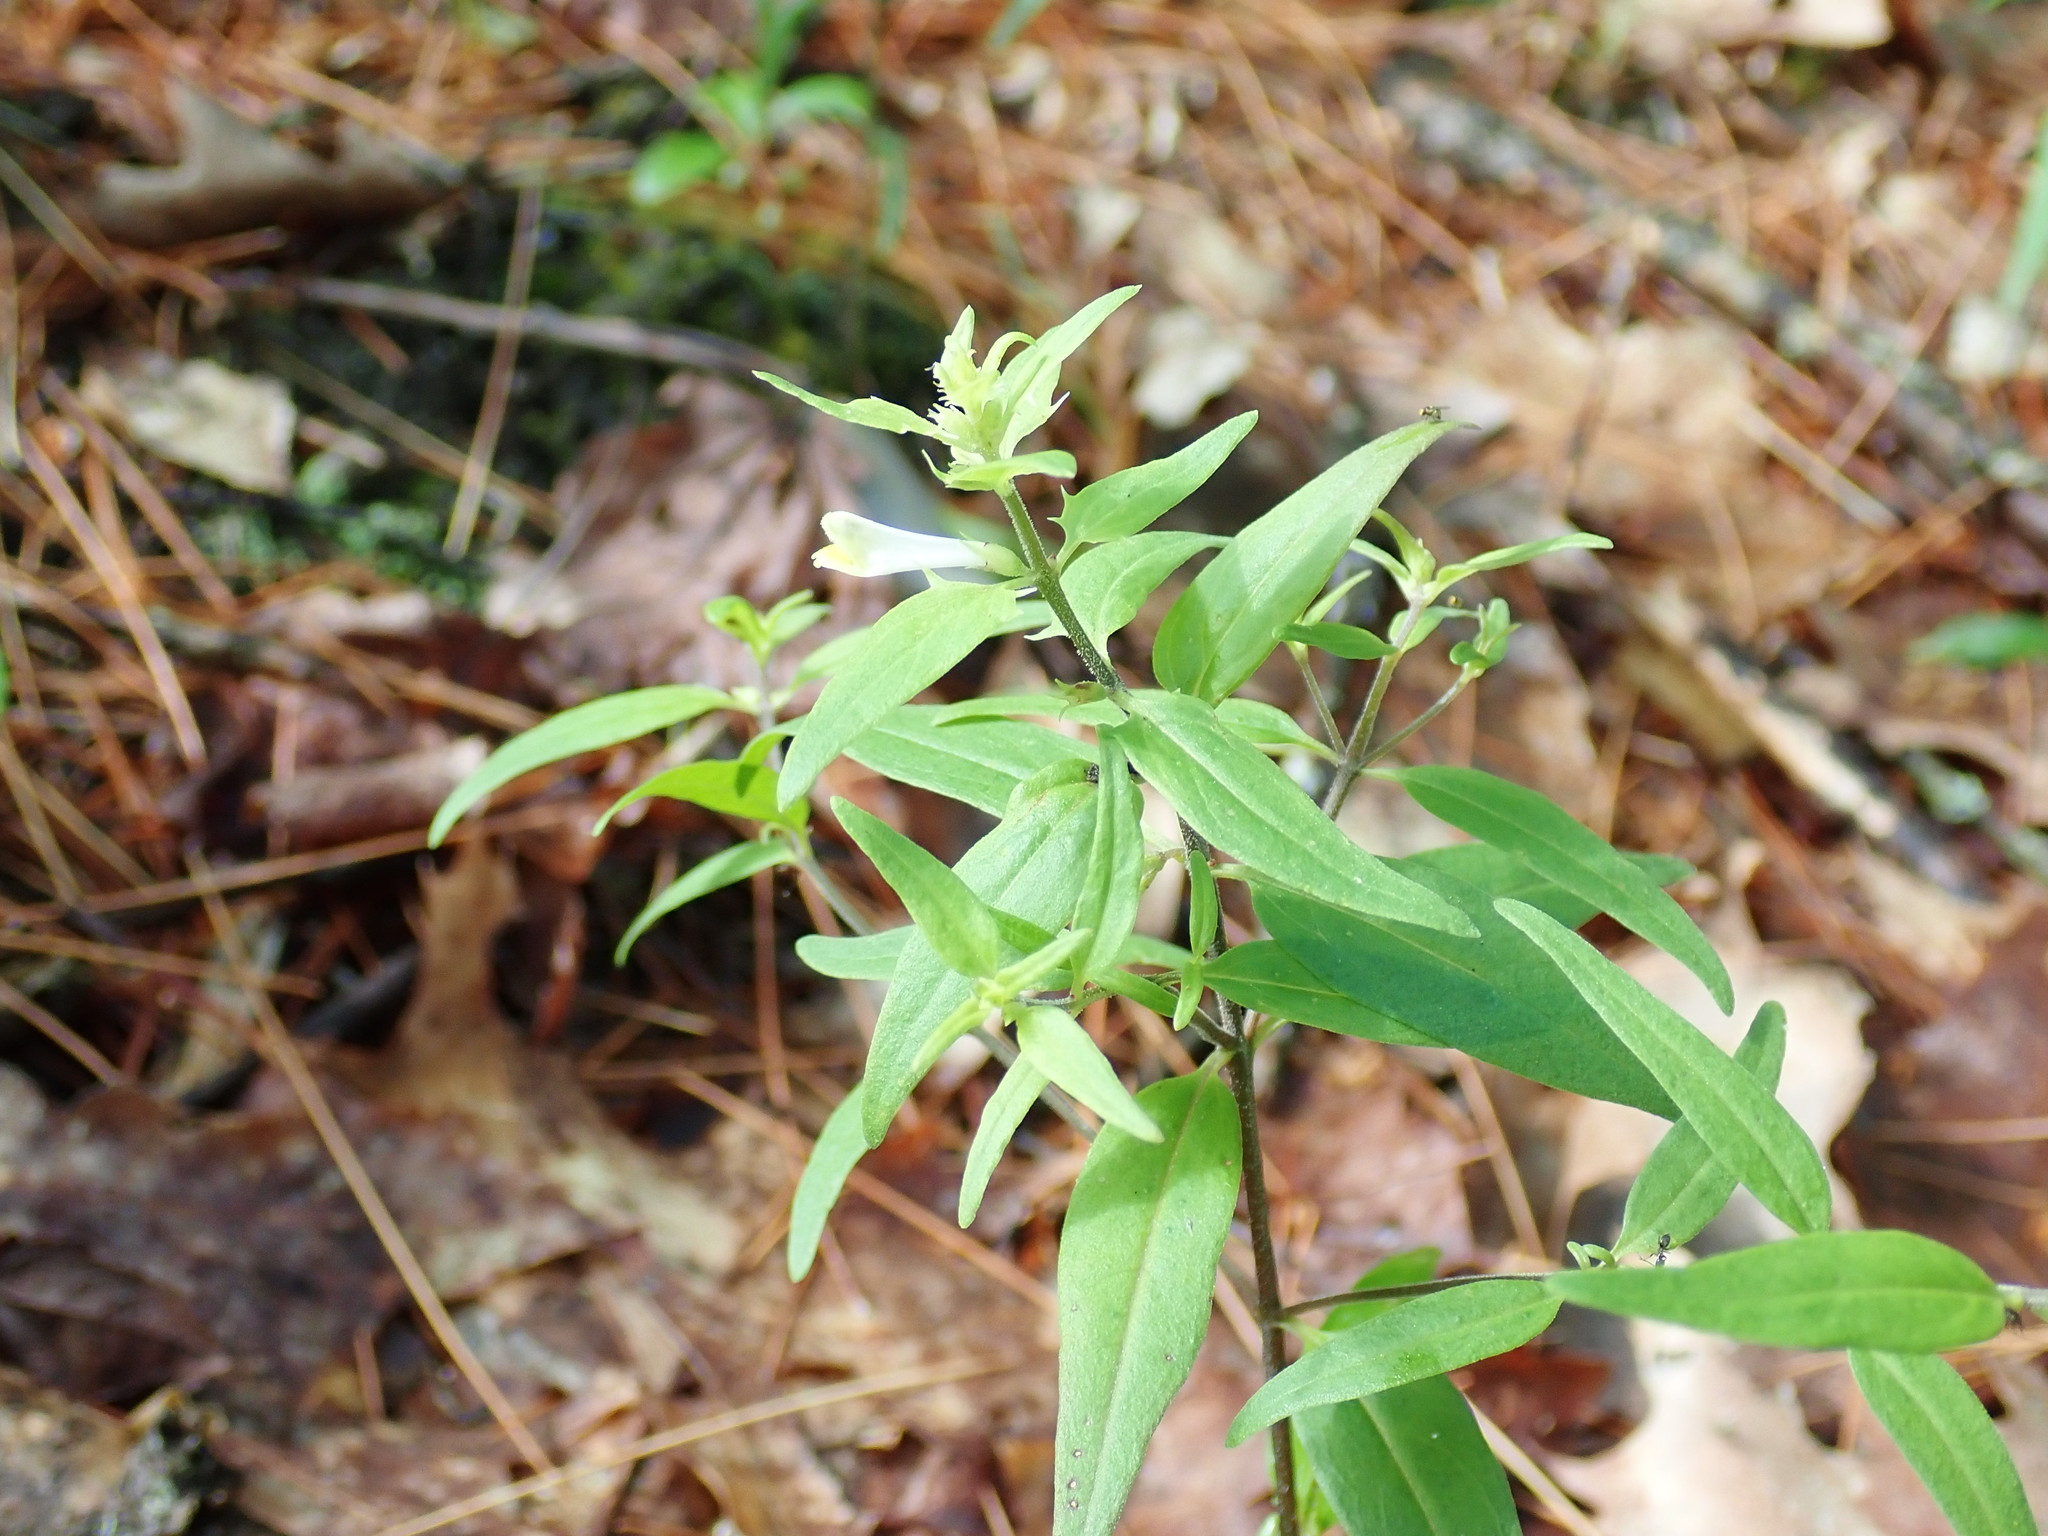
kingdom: Plantae
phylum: Tracheophyta
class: Magnoliopsida
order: Lamiales
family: Orobanchaceae
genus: Melampyrum
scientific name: Melampyrum lineare
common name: American cow-wheat
